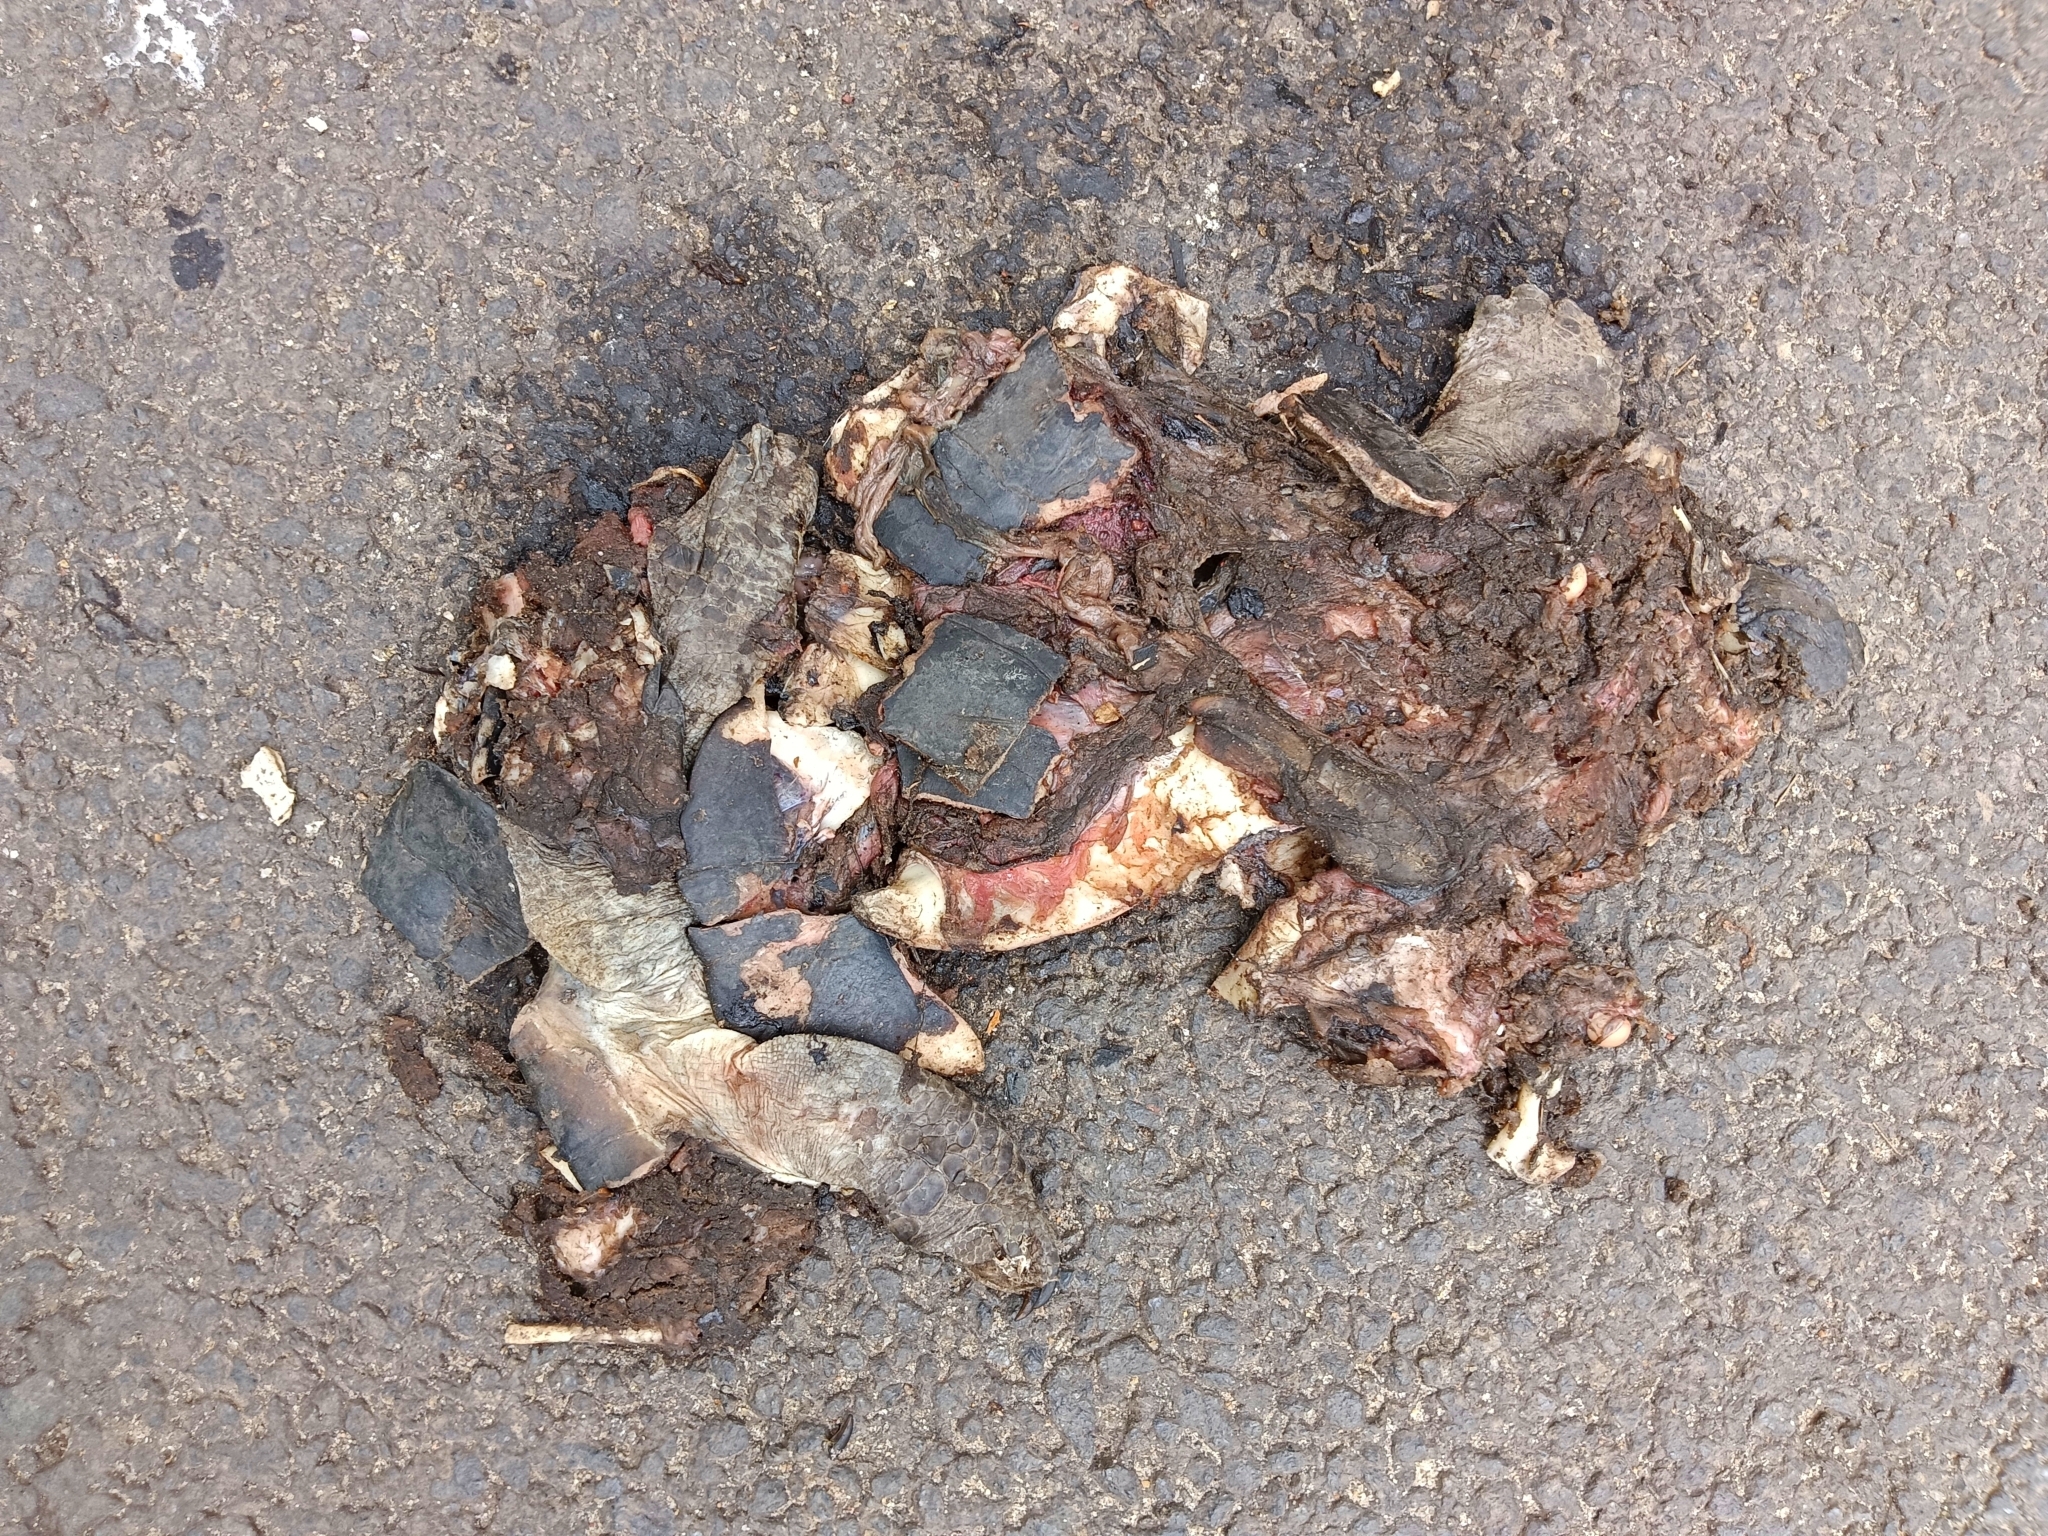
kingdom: Animalia
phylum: Chordata
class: Testudines
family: Geoemydidae
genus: Melanochelys
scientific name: Melanochelys trijuga
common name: Indian black turtle
